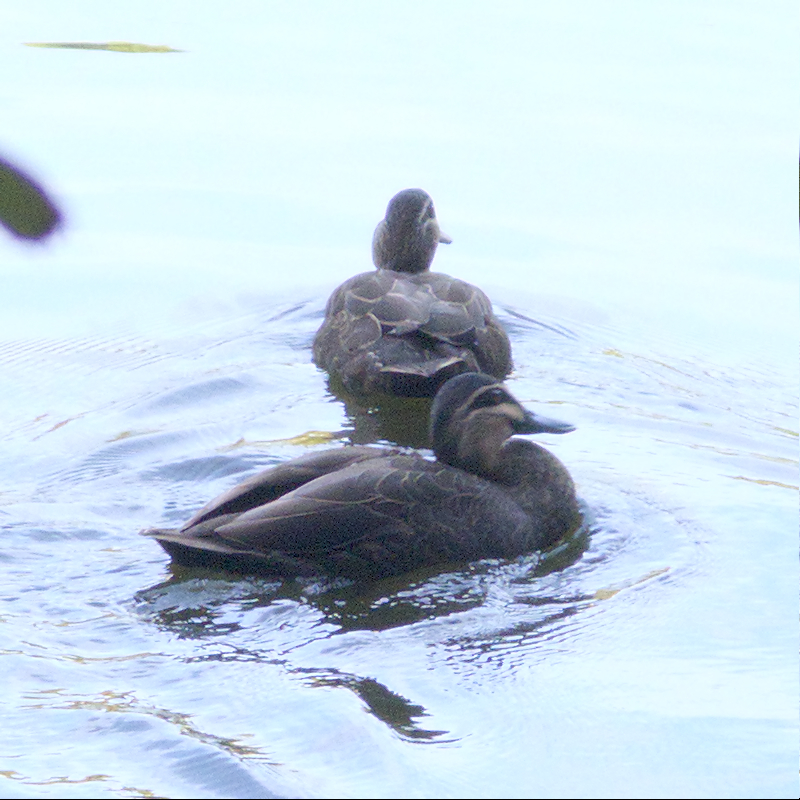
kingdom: Animalia
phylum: Chordata
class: Aves
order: Anseriformes
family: Anatidae
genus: Anas
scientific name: Anas superciliosa
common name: Pacific black duck
